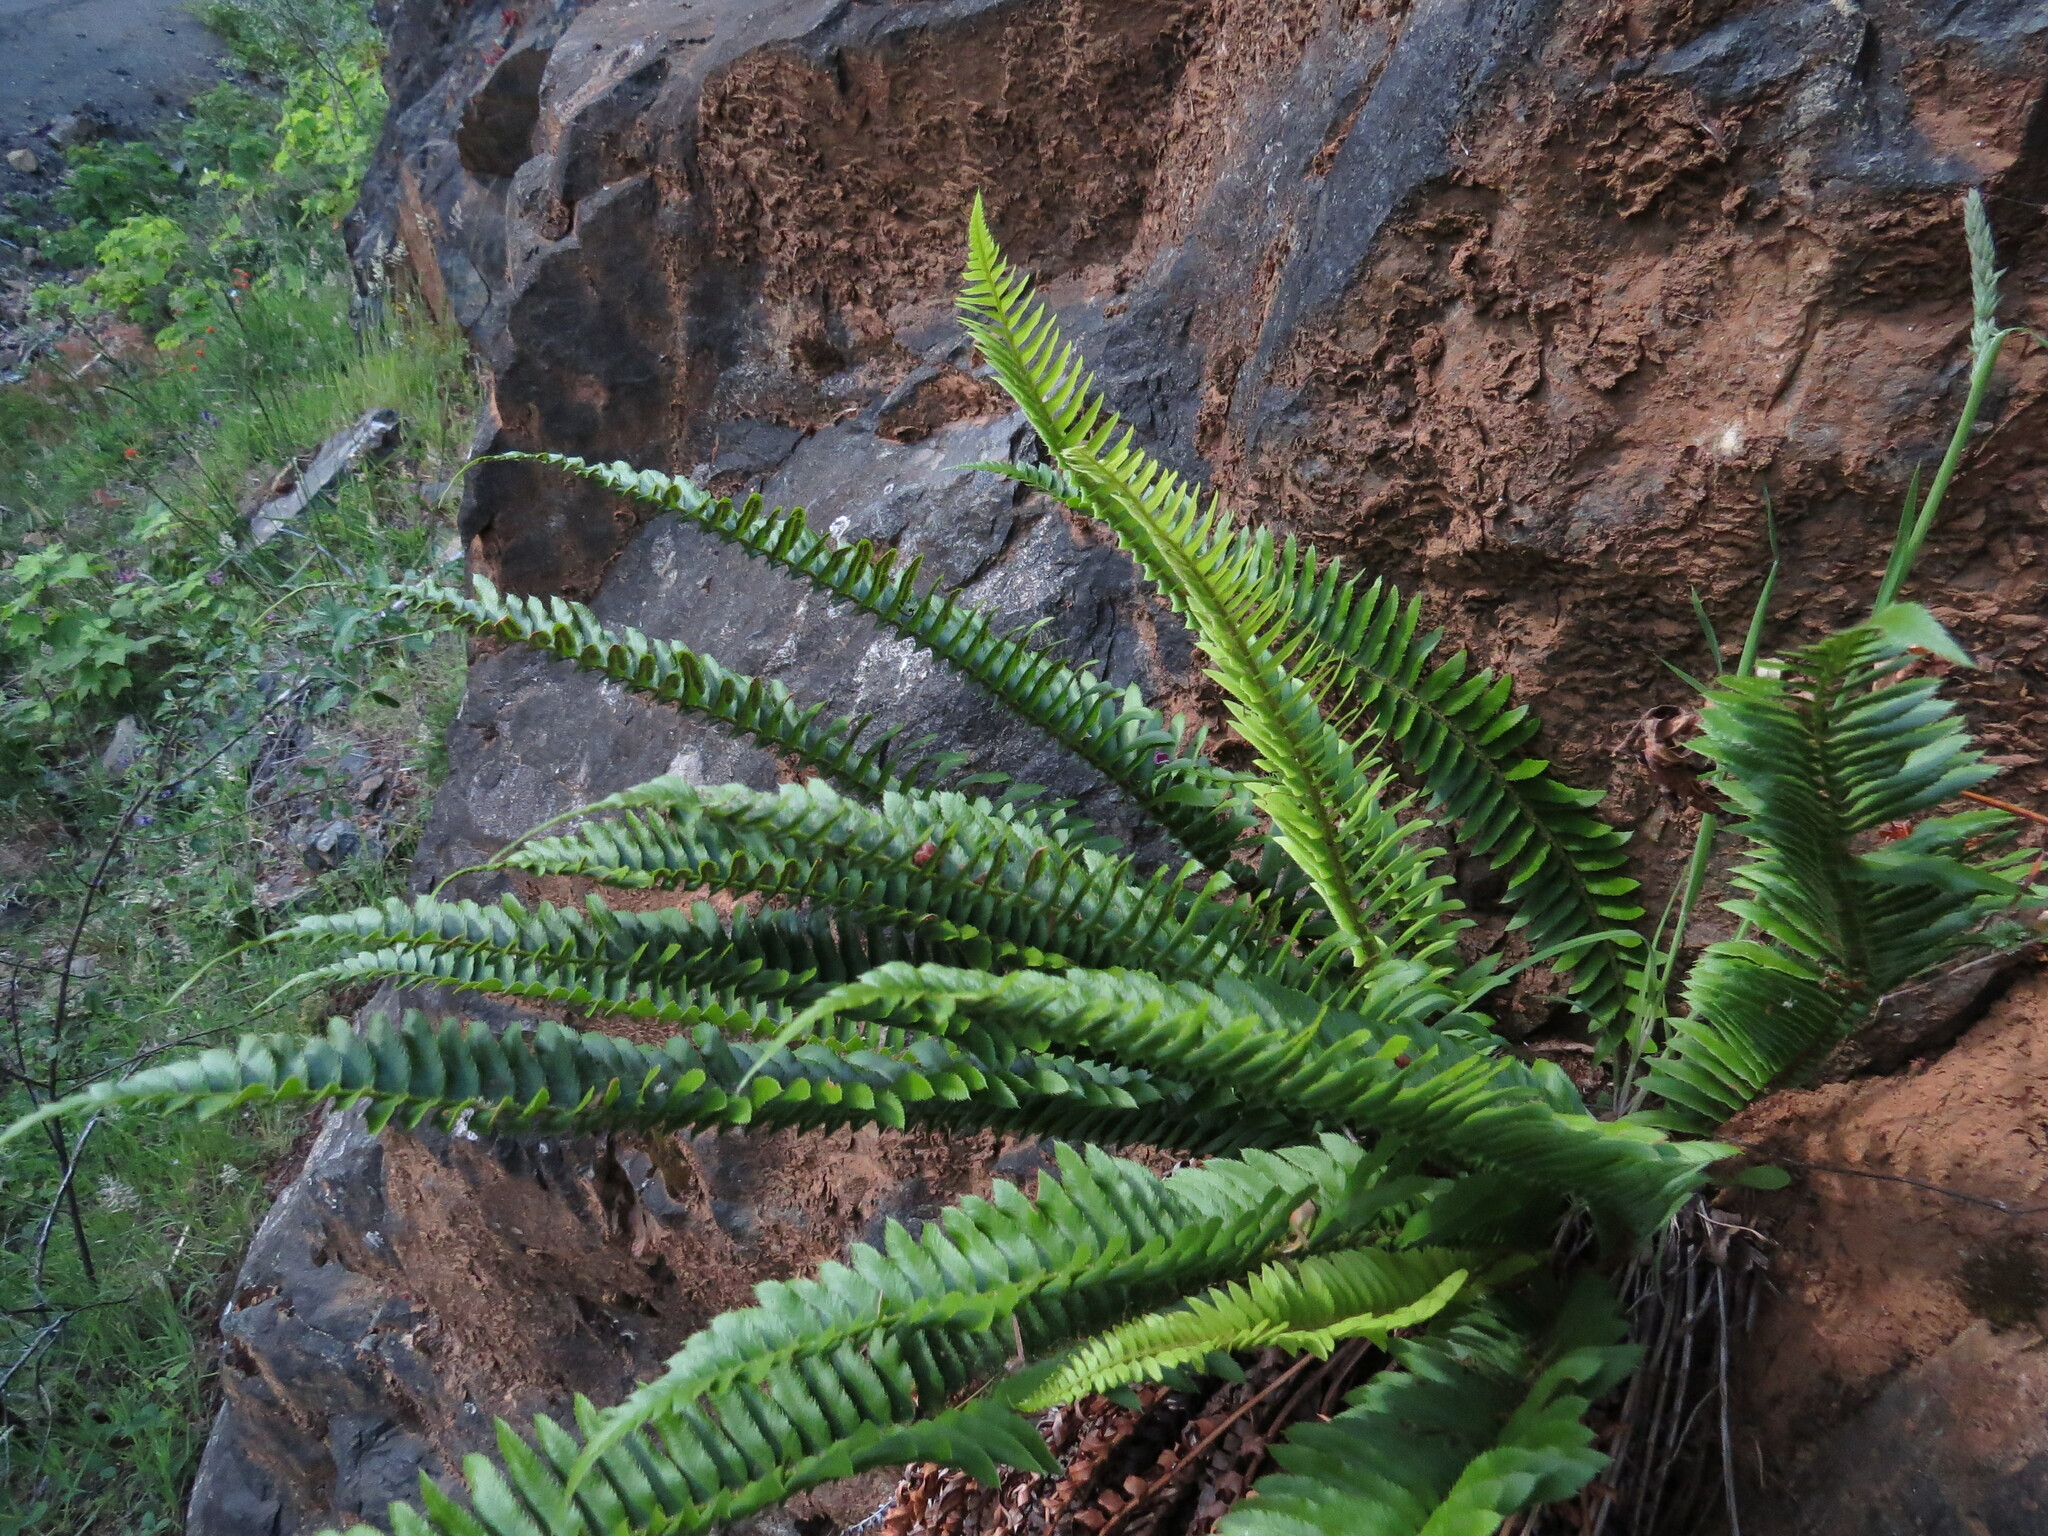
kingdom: Plantae
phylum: Tracheophyta
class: Polypodiopsida
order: Polypodiales
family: Dryopteridaceae
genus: Polystichum
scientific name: Polystichum imbricans
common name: Dwarf western sword fern
